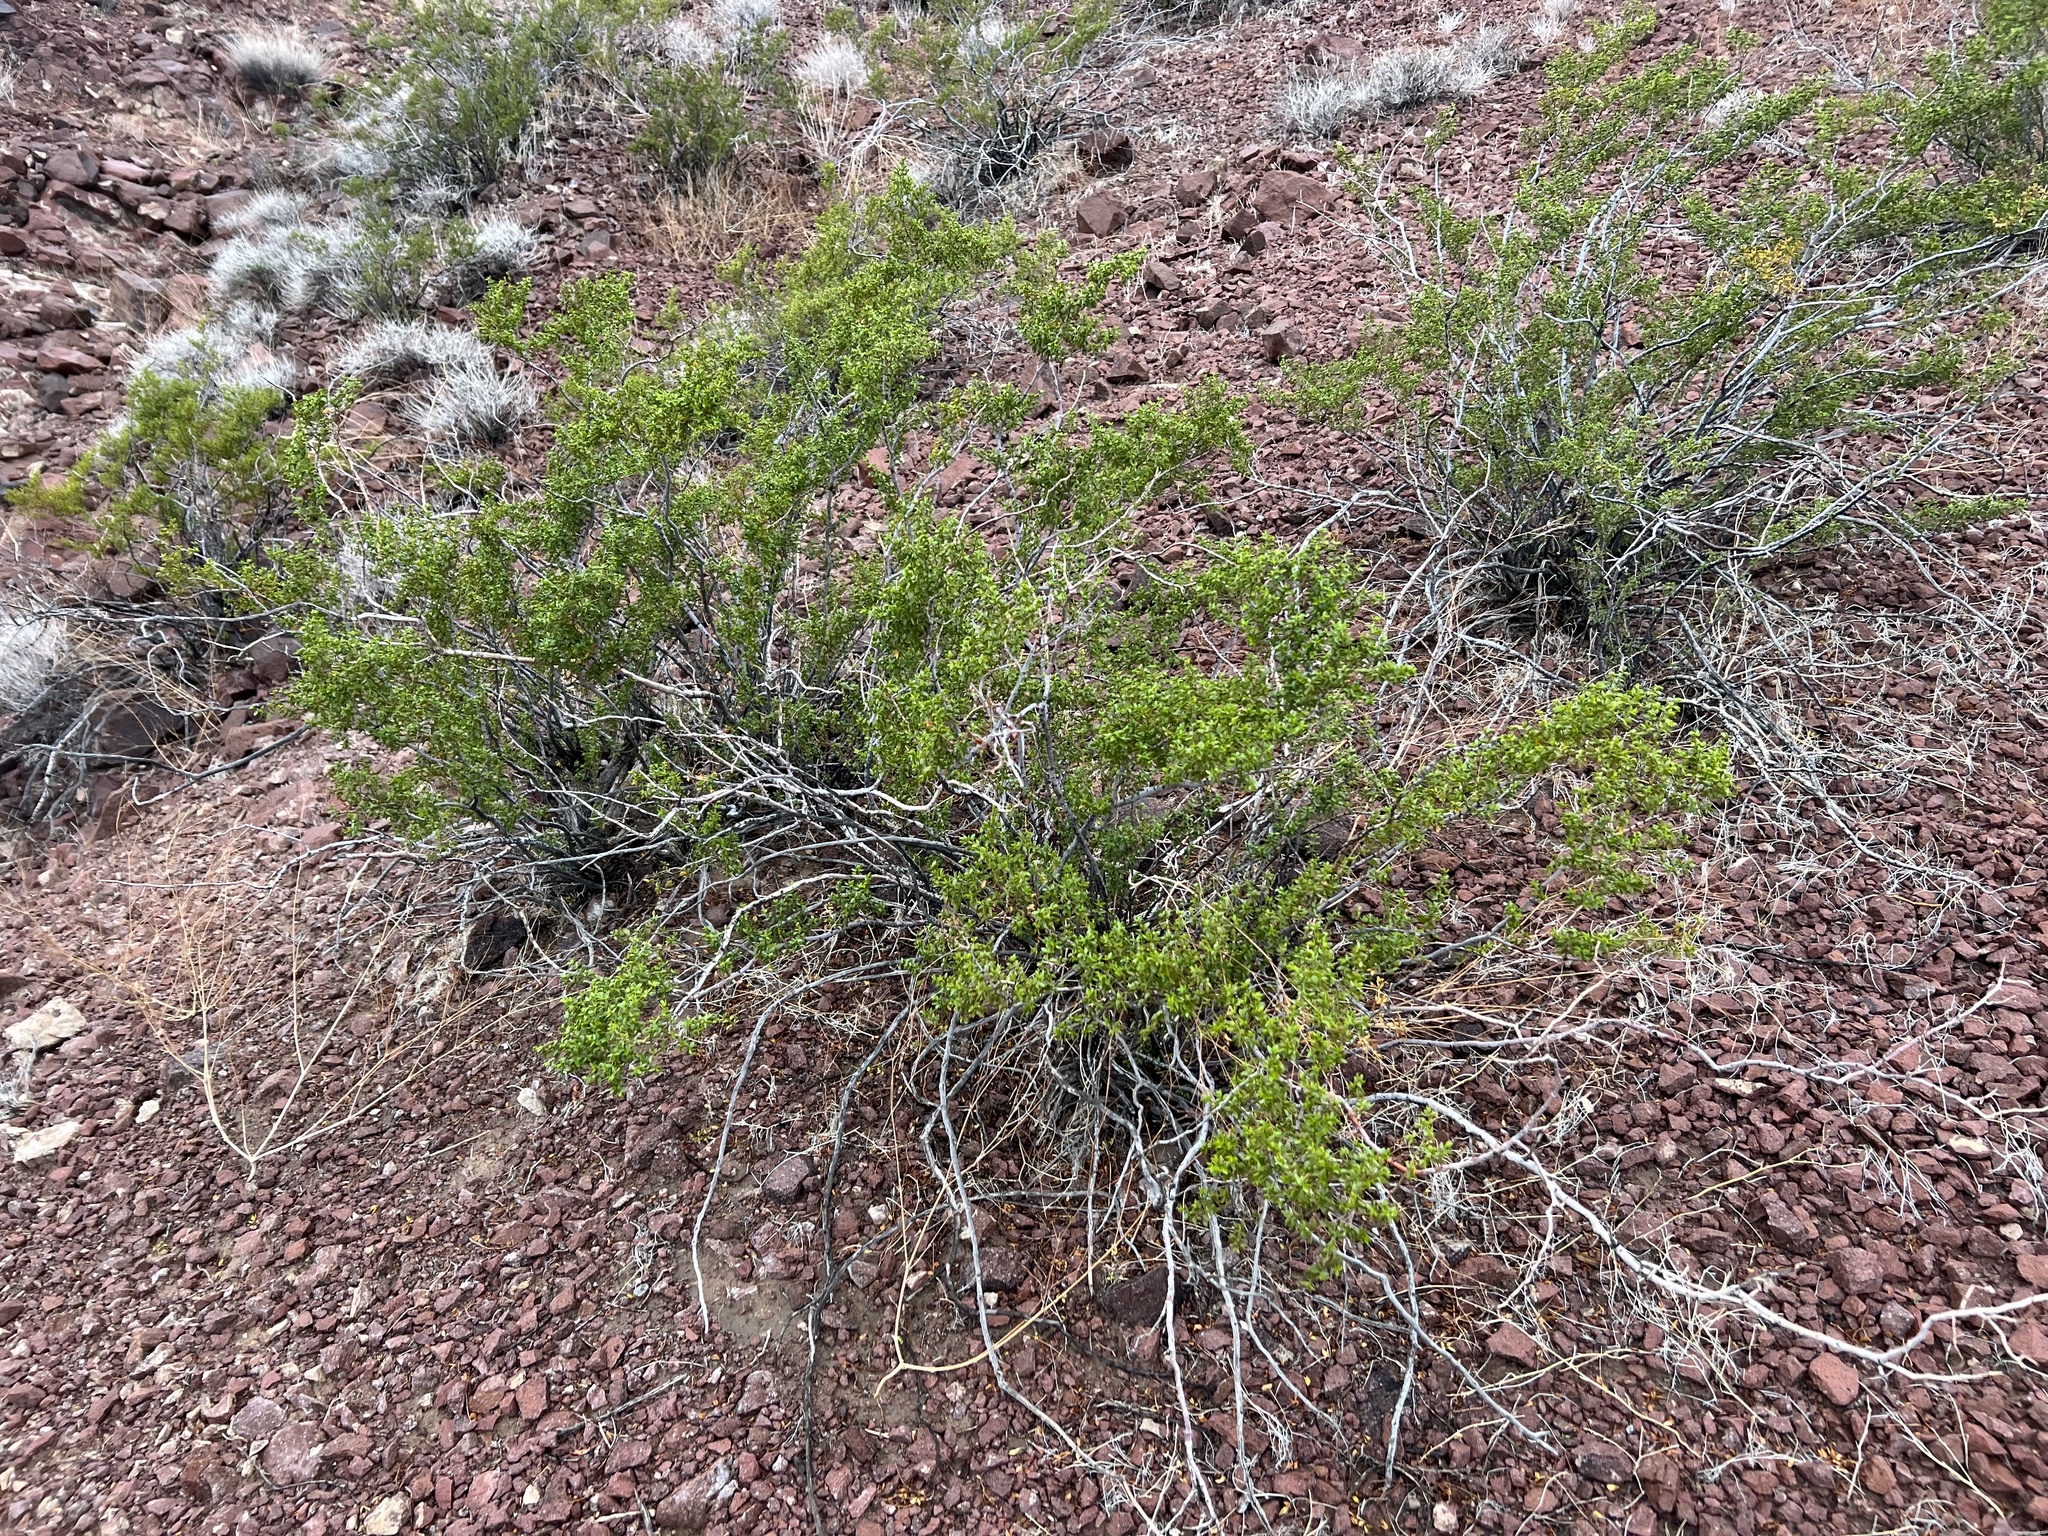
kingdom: Plantae
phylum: Tracheophyta
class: Magnoliopsida
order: Zygophyllales
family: Zygophyllaceae
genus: Larrea
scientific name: Larrea tridentata
